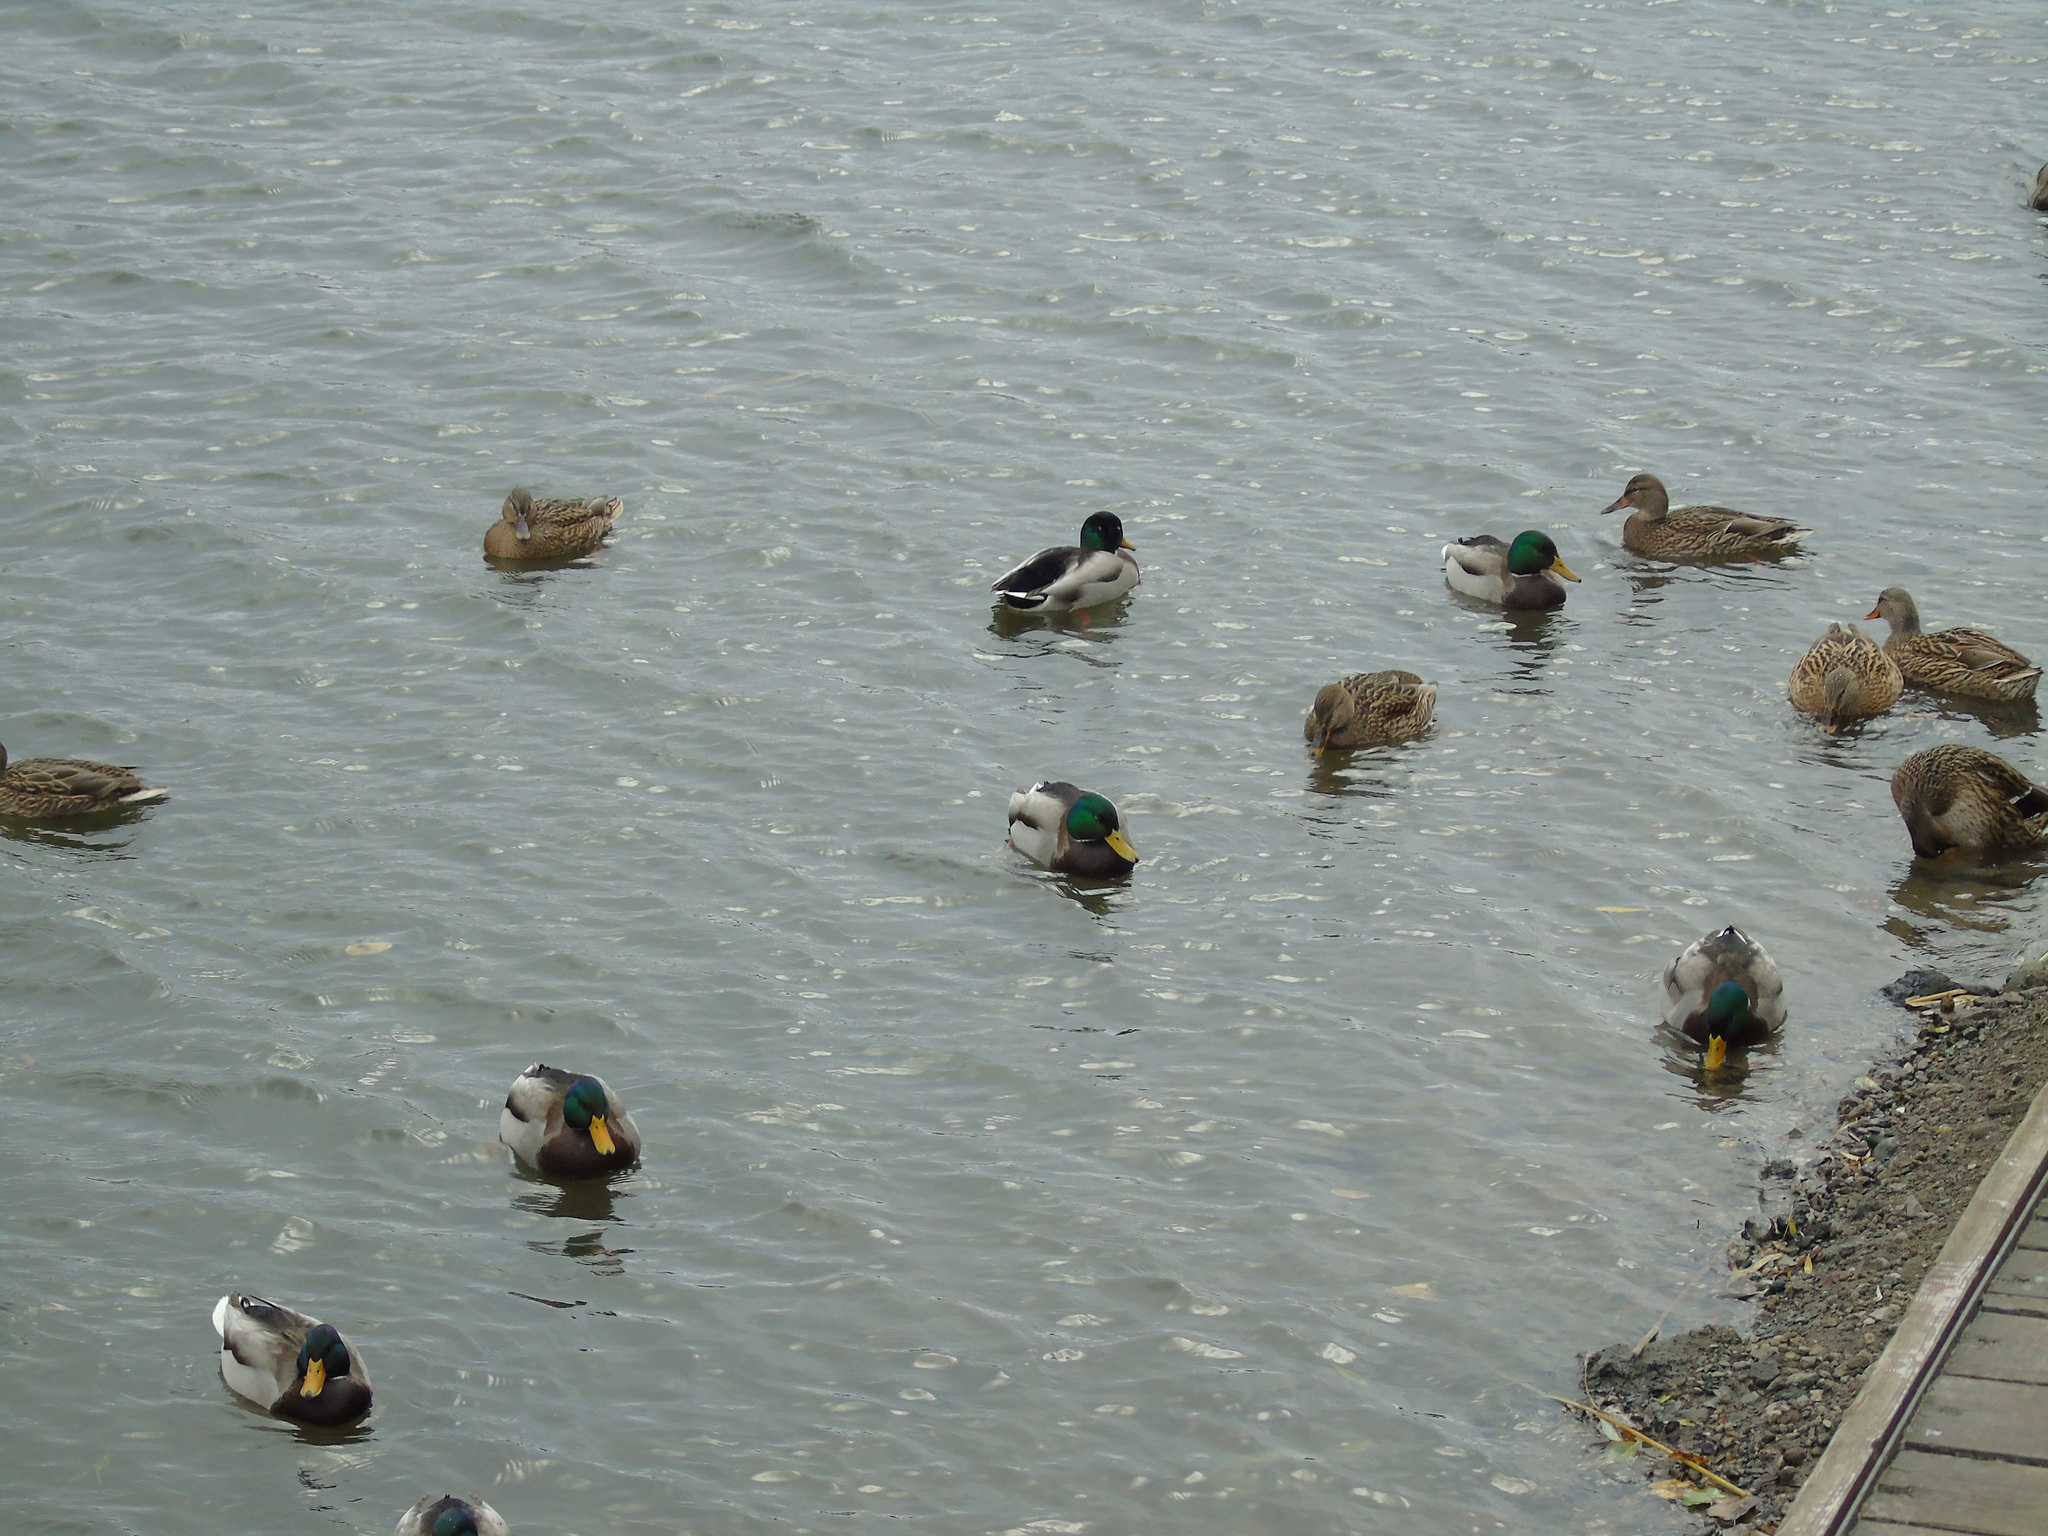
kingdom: Animalia
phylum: Chordata
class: Aves
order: Anseriformes
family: Anatidae
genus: Anas
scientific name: Anas platyrhynchos
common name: Mallard
